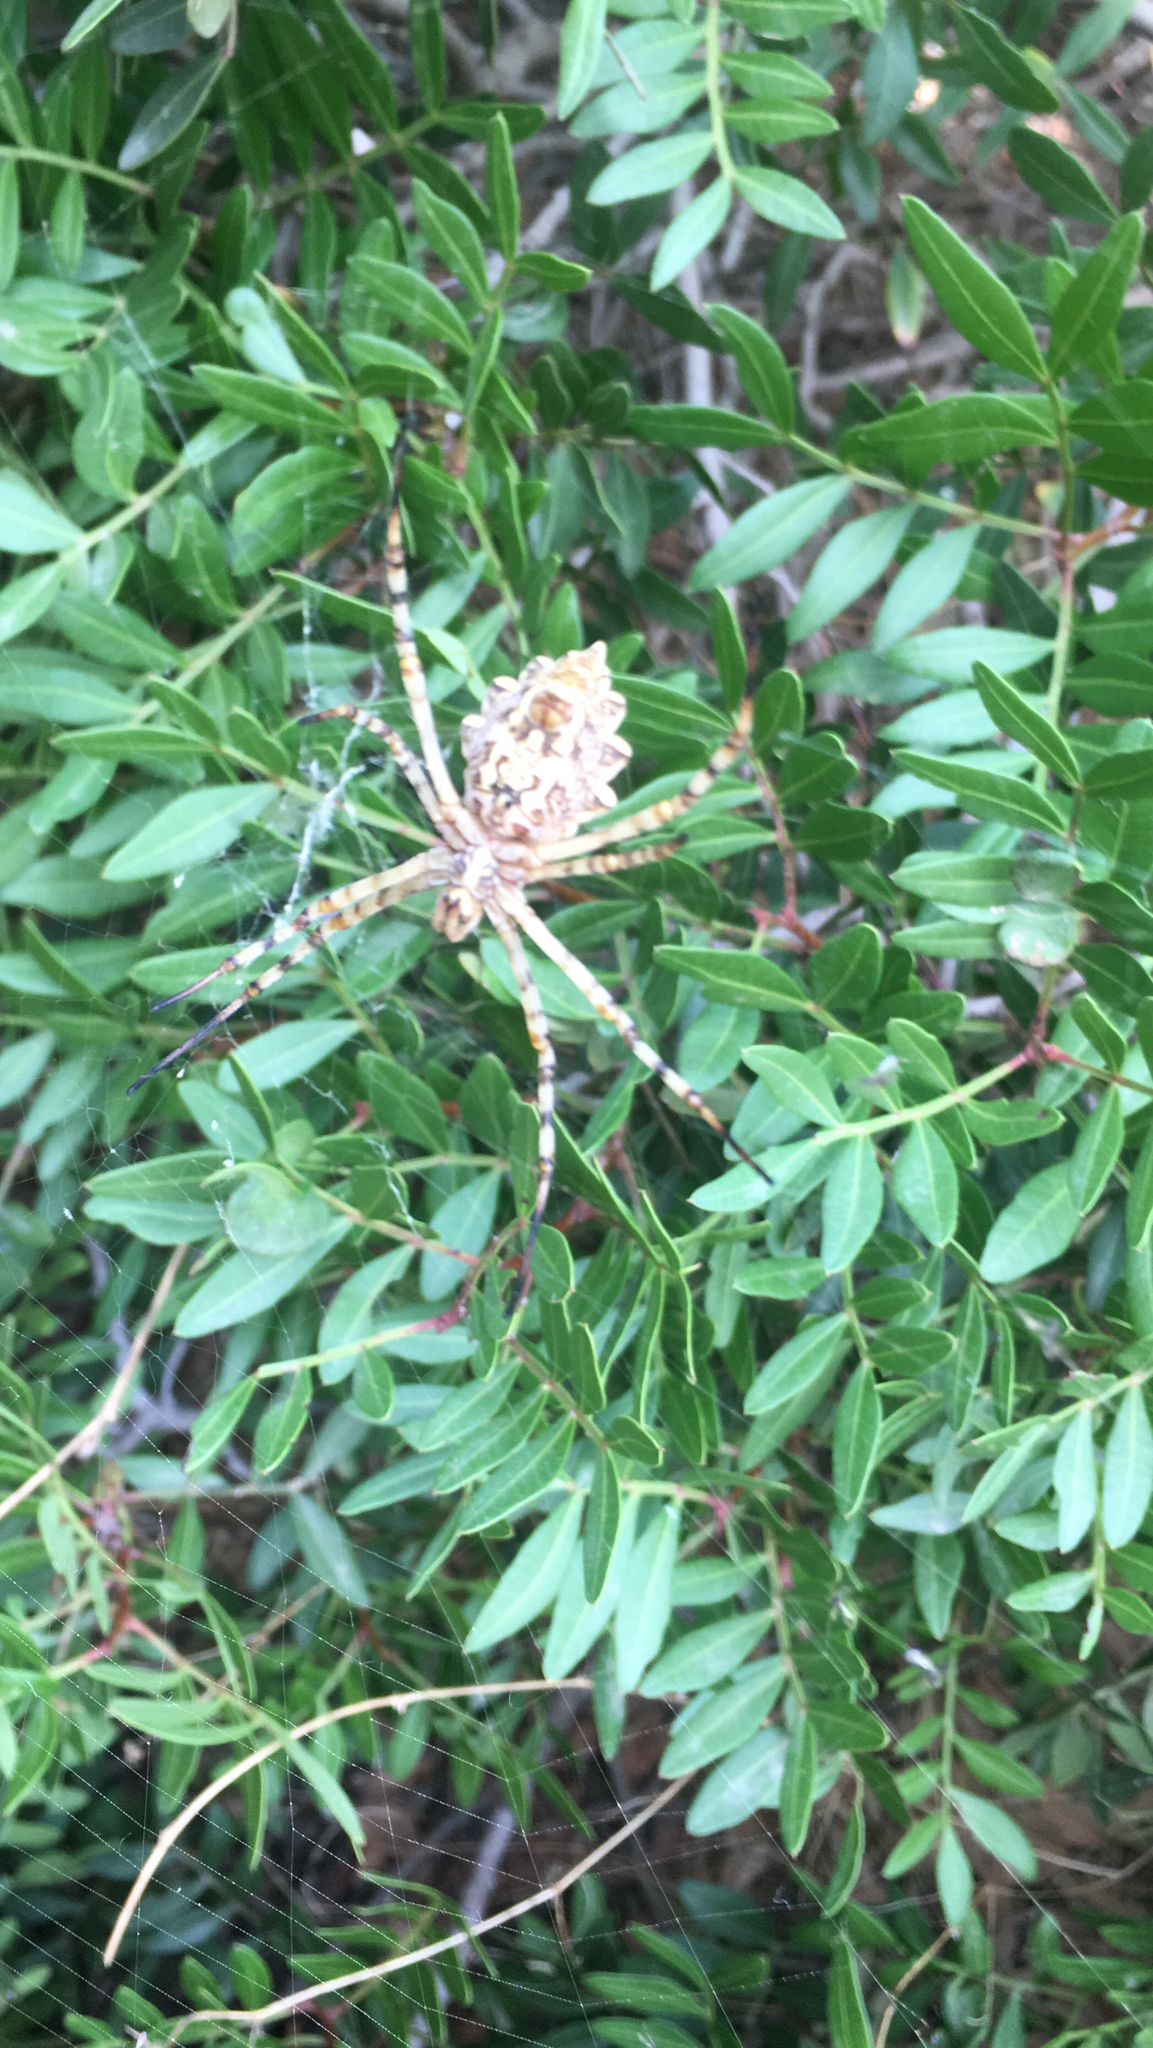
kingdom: Animalia
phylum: Arthropoda
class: Arachnida
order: Araneae
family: Araneidae
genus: Argiope
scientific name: Argiope lobata
